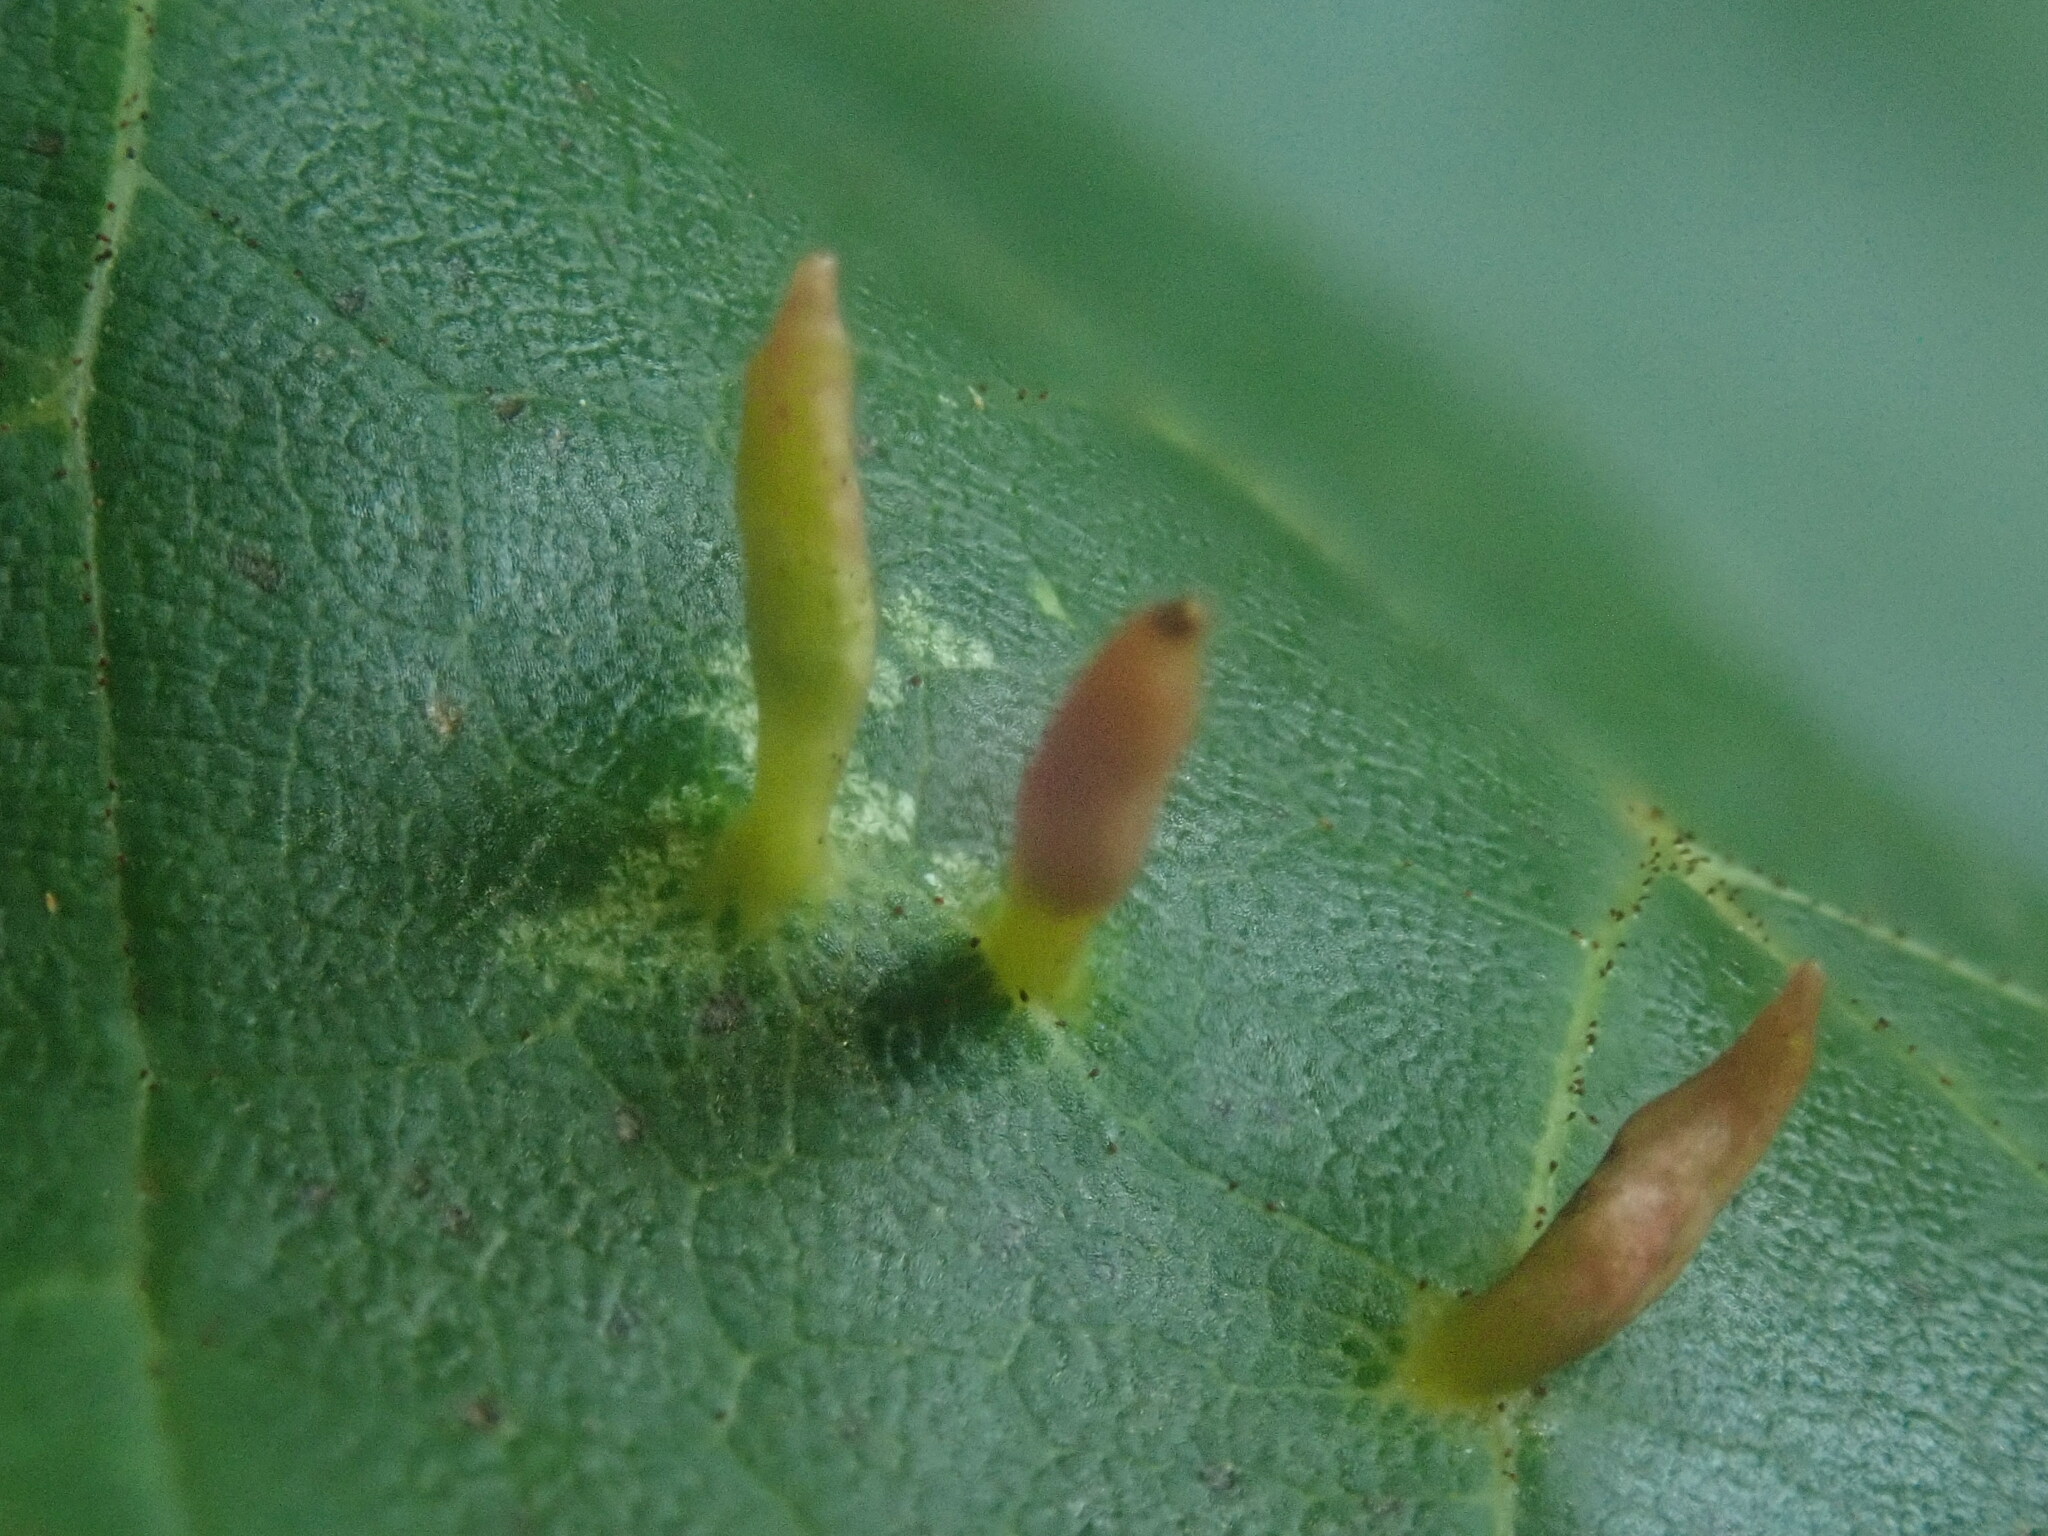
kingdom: Animalia
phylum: Arthropoda
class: Arachnida
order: Trombidiformes
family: Eriophyidae
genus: Vasates
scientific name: Vasates aceriscrumena
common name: Maple spindle gall mite
